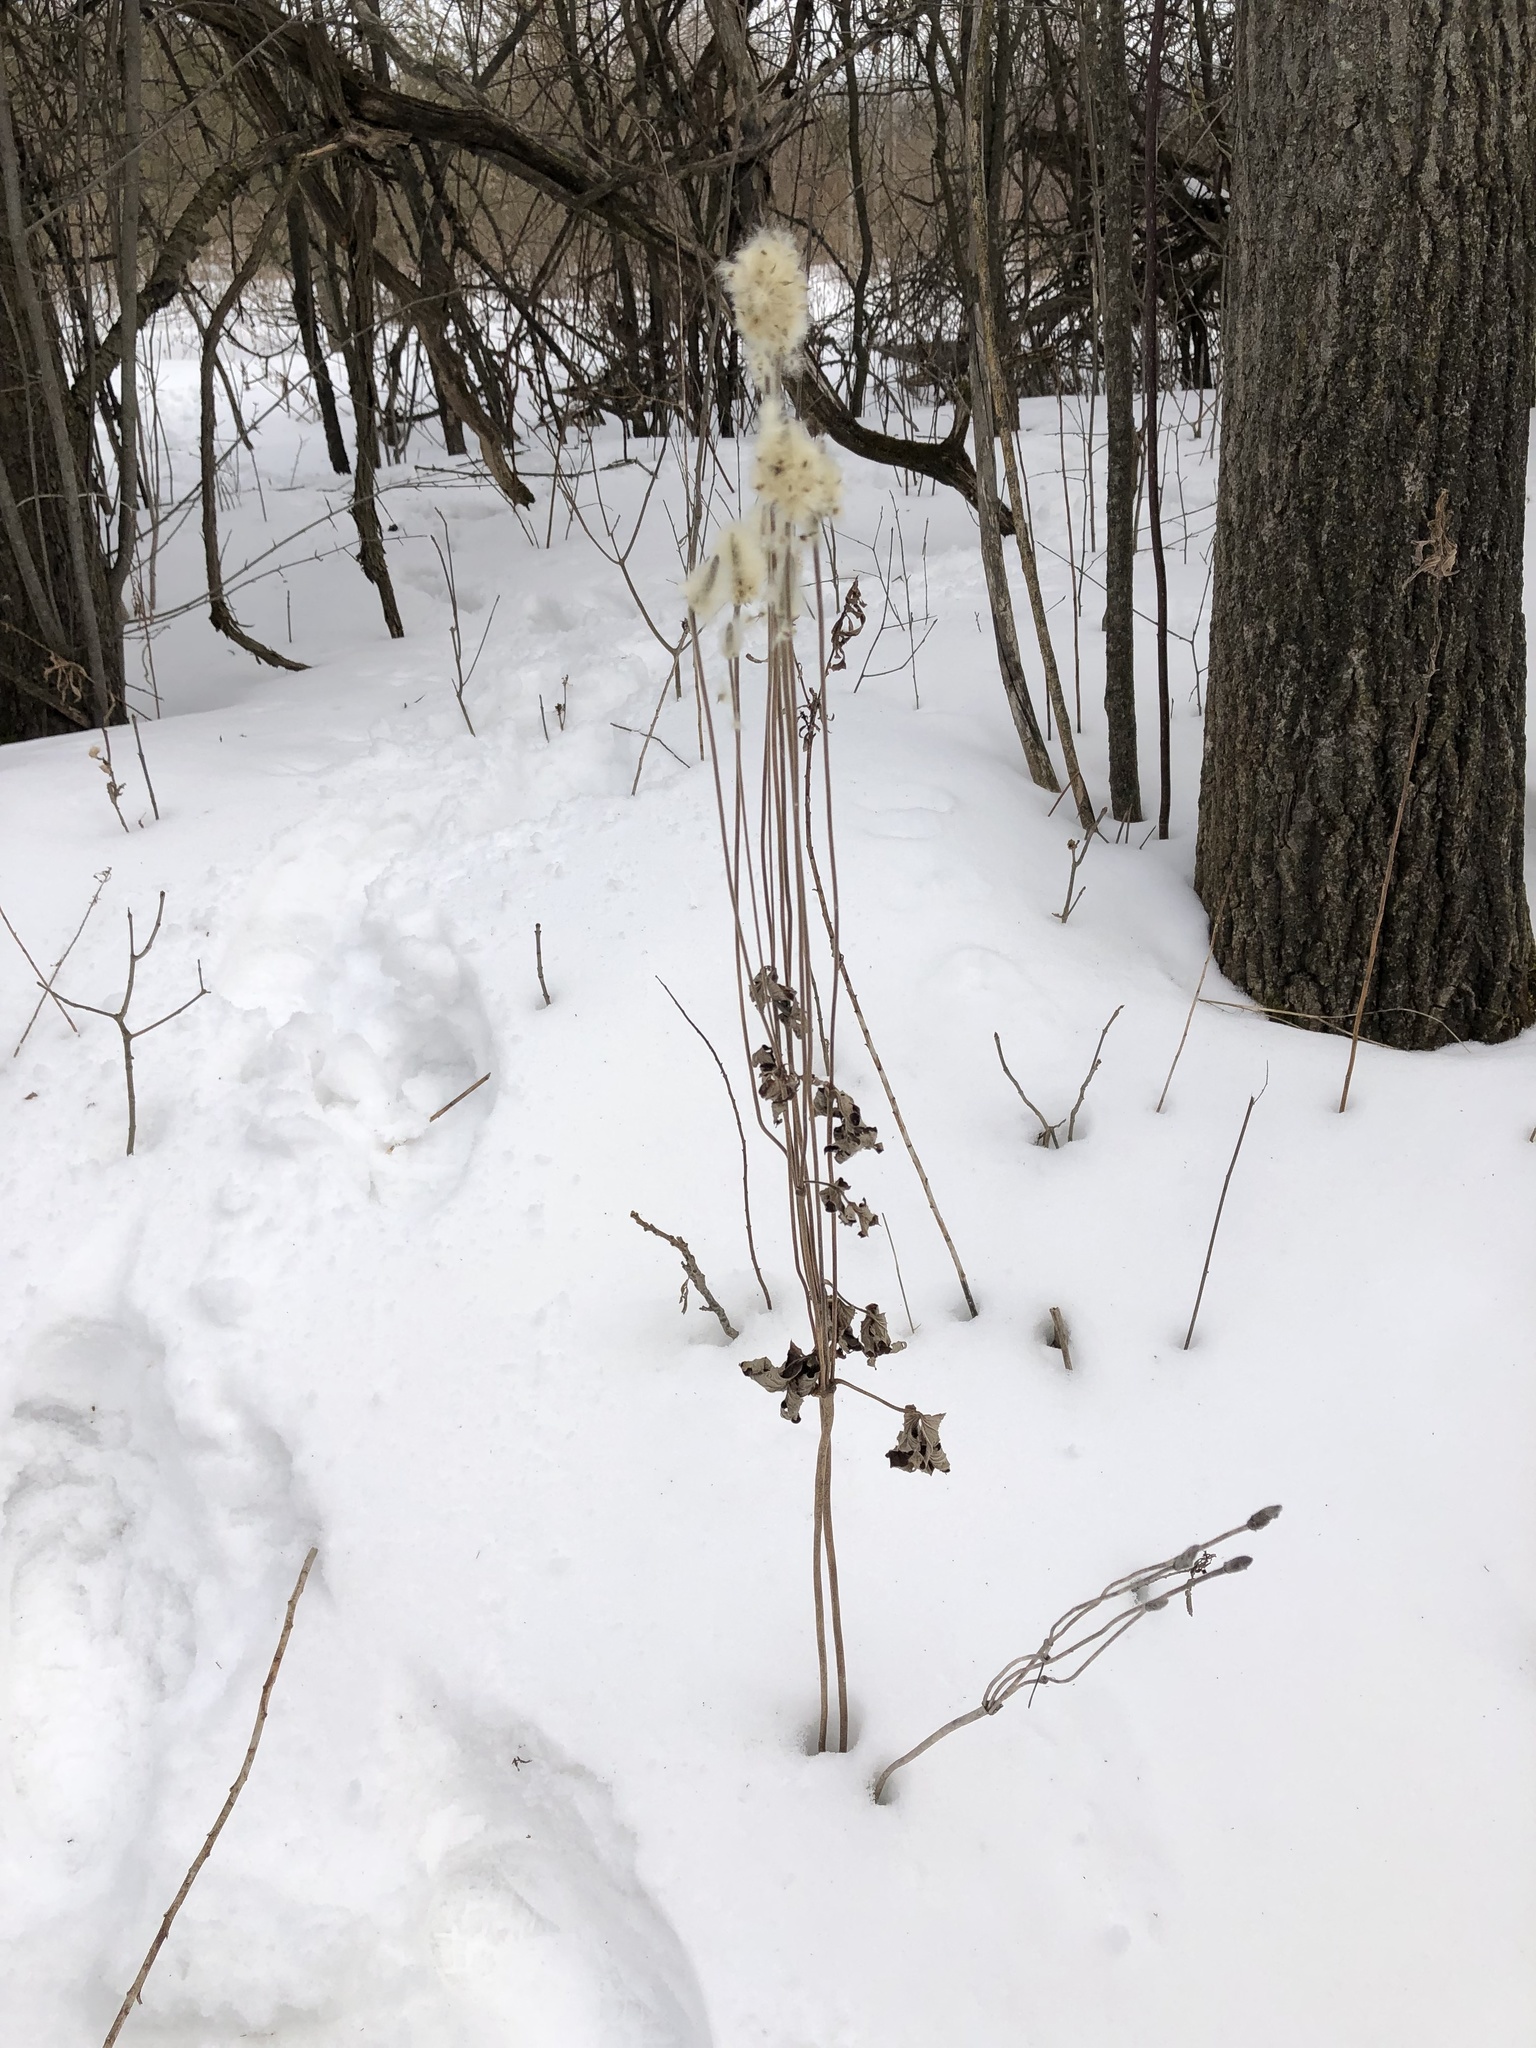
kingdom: Plantae
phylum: Tracheophyta
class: Magnoliopsida
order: Ranunculales
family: Ranunculaceae
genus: Anemone
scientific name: Anemone virginiana
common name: Tall anemone
